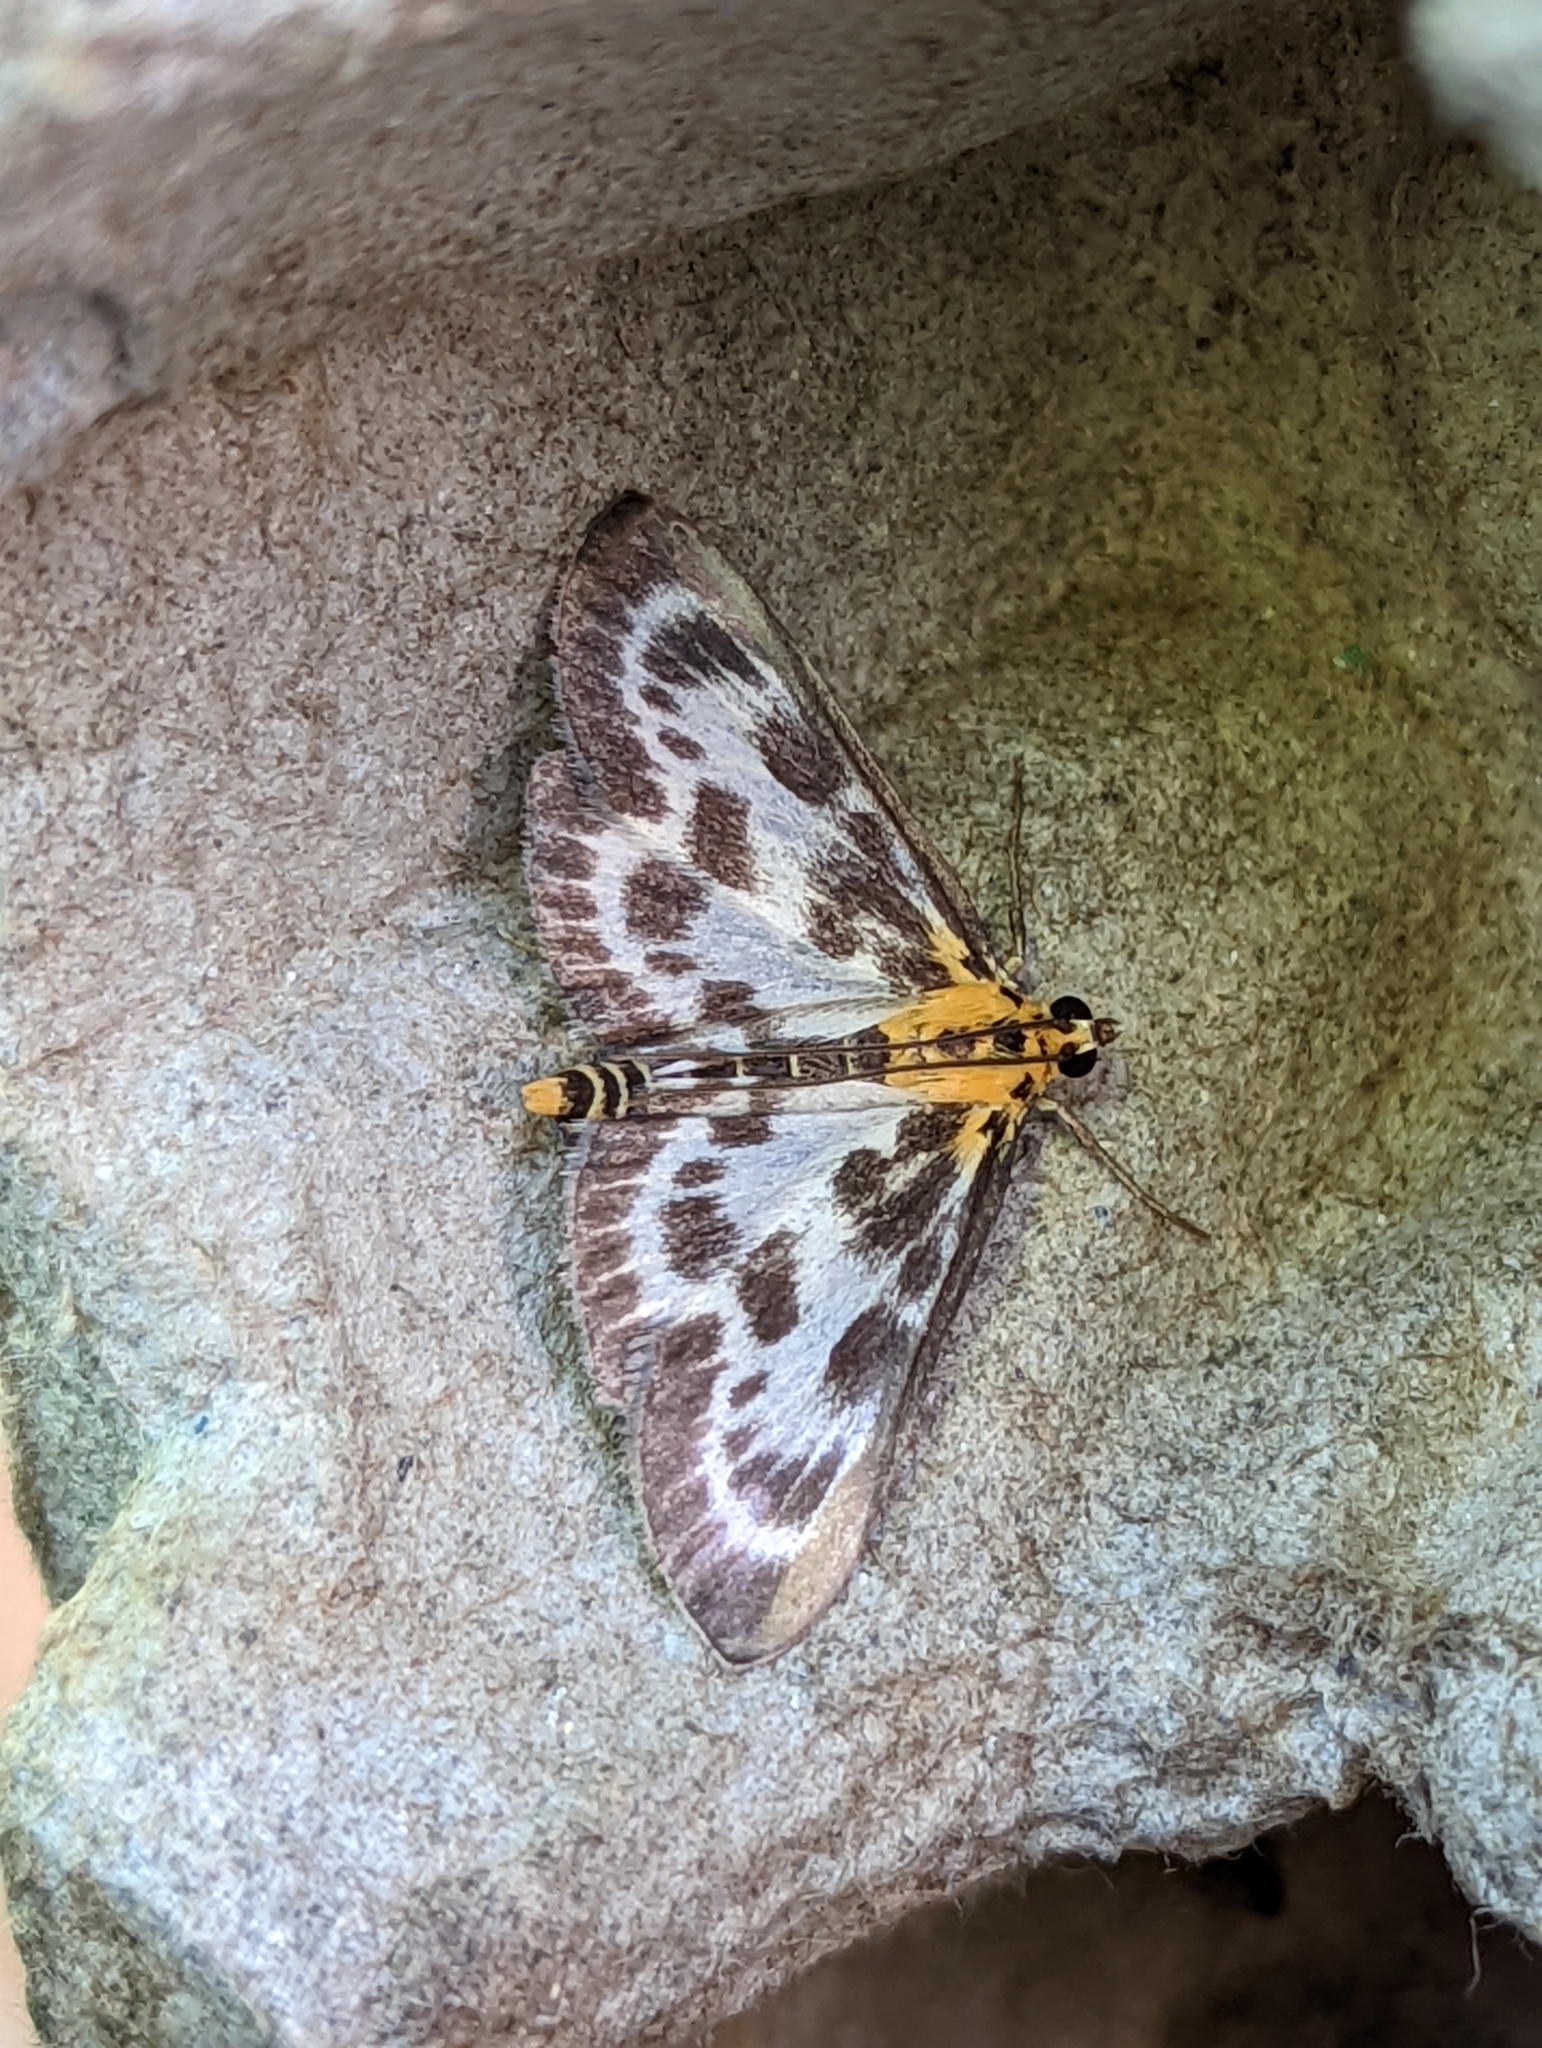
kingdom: Animalia
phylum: Arthropoda
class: Insecta
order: Lepidoptera
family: Crambidae
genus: Anania
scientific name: Anania hortulata
